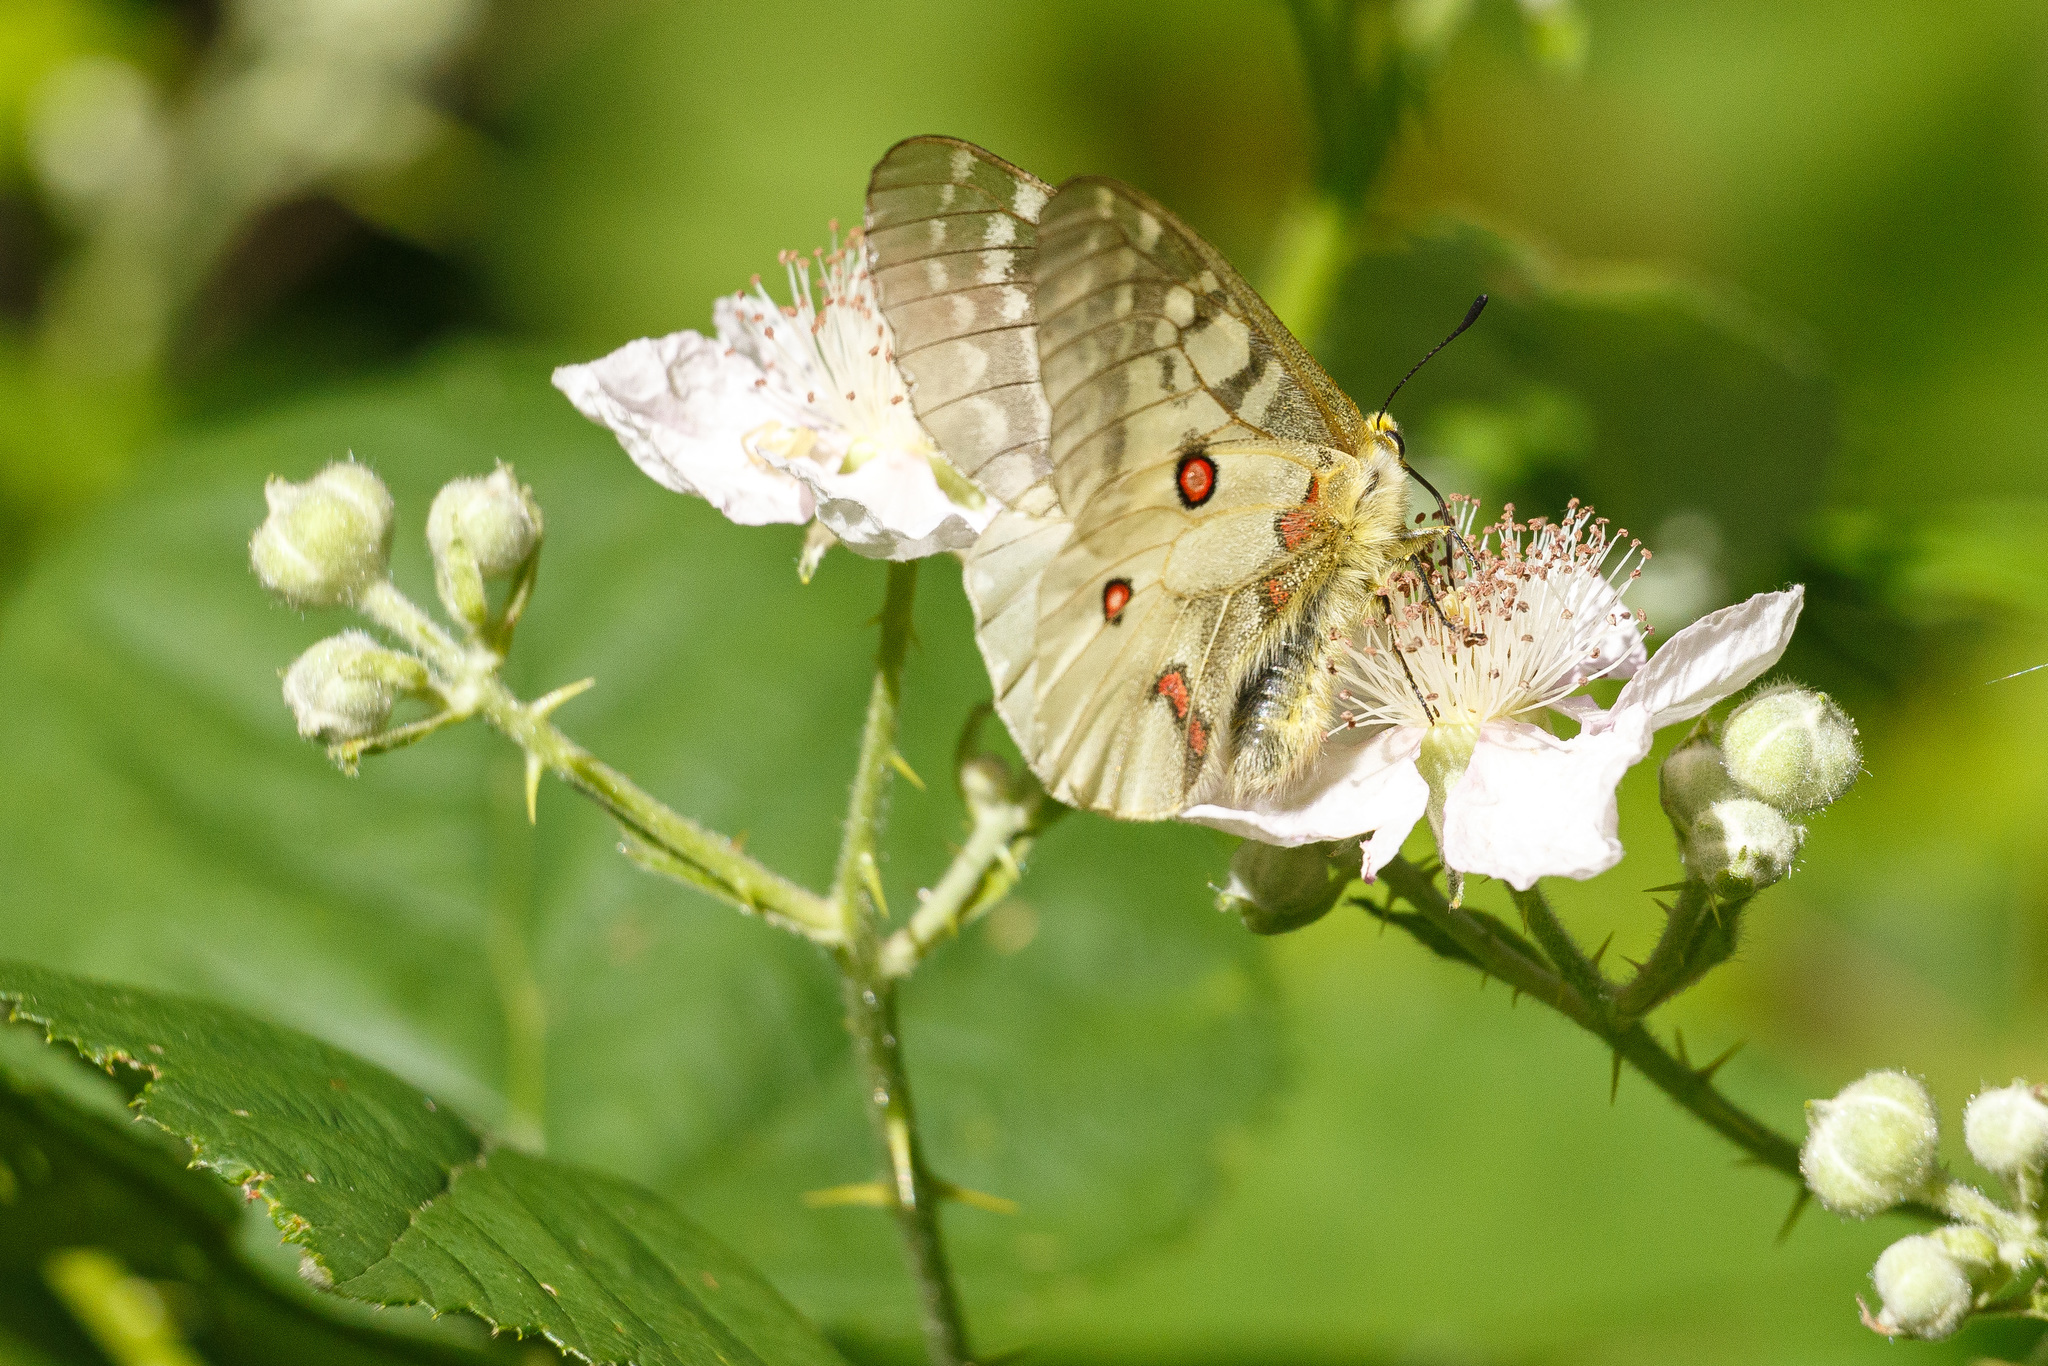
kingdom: Animalia
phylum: Arthropoda
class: Insecta
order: Lepidoptera
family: Papilionidae
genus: Parnassius
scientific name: Parnassius clodius
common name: American apollo
